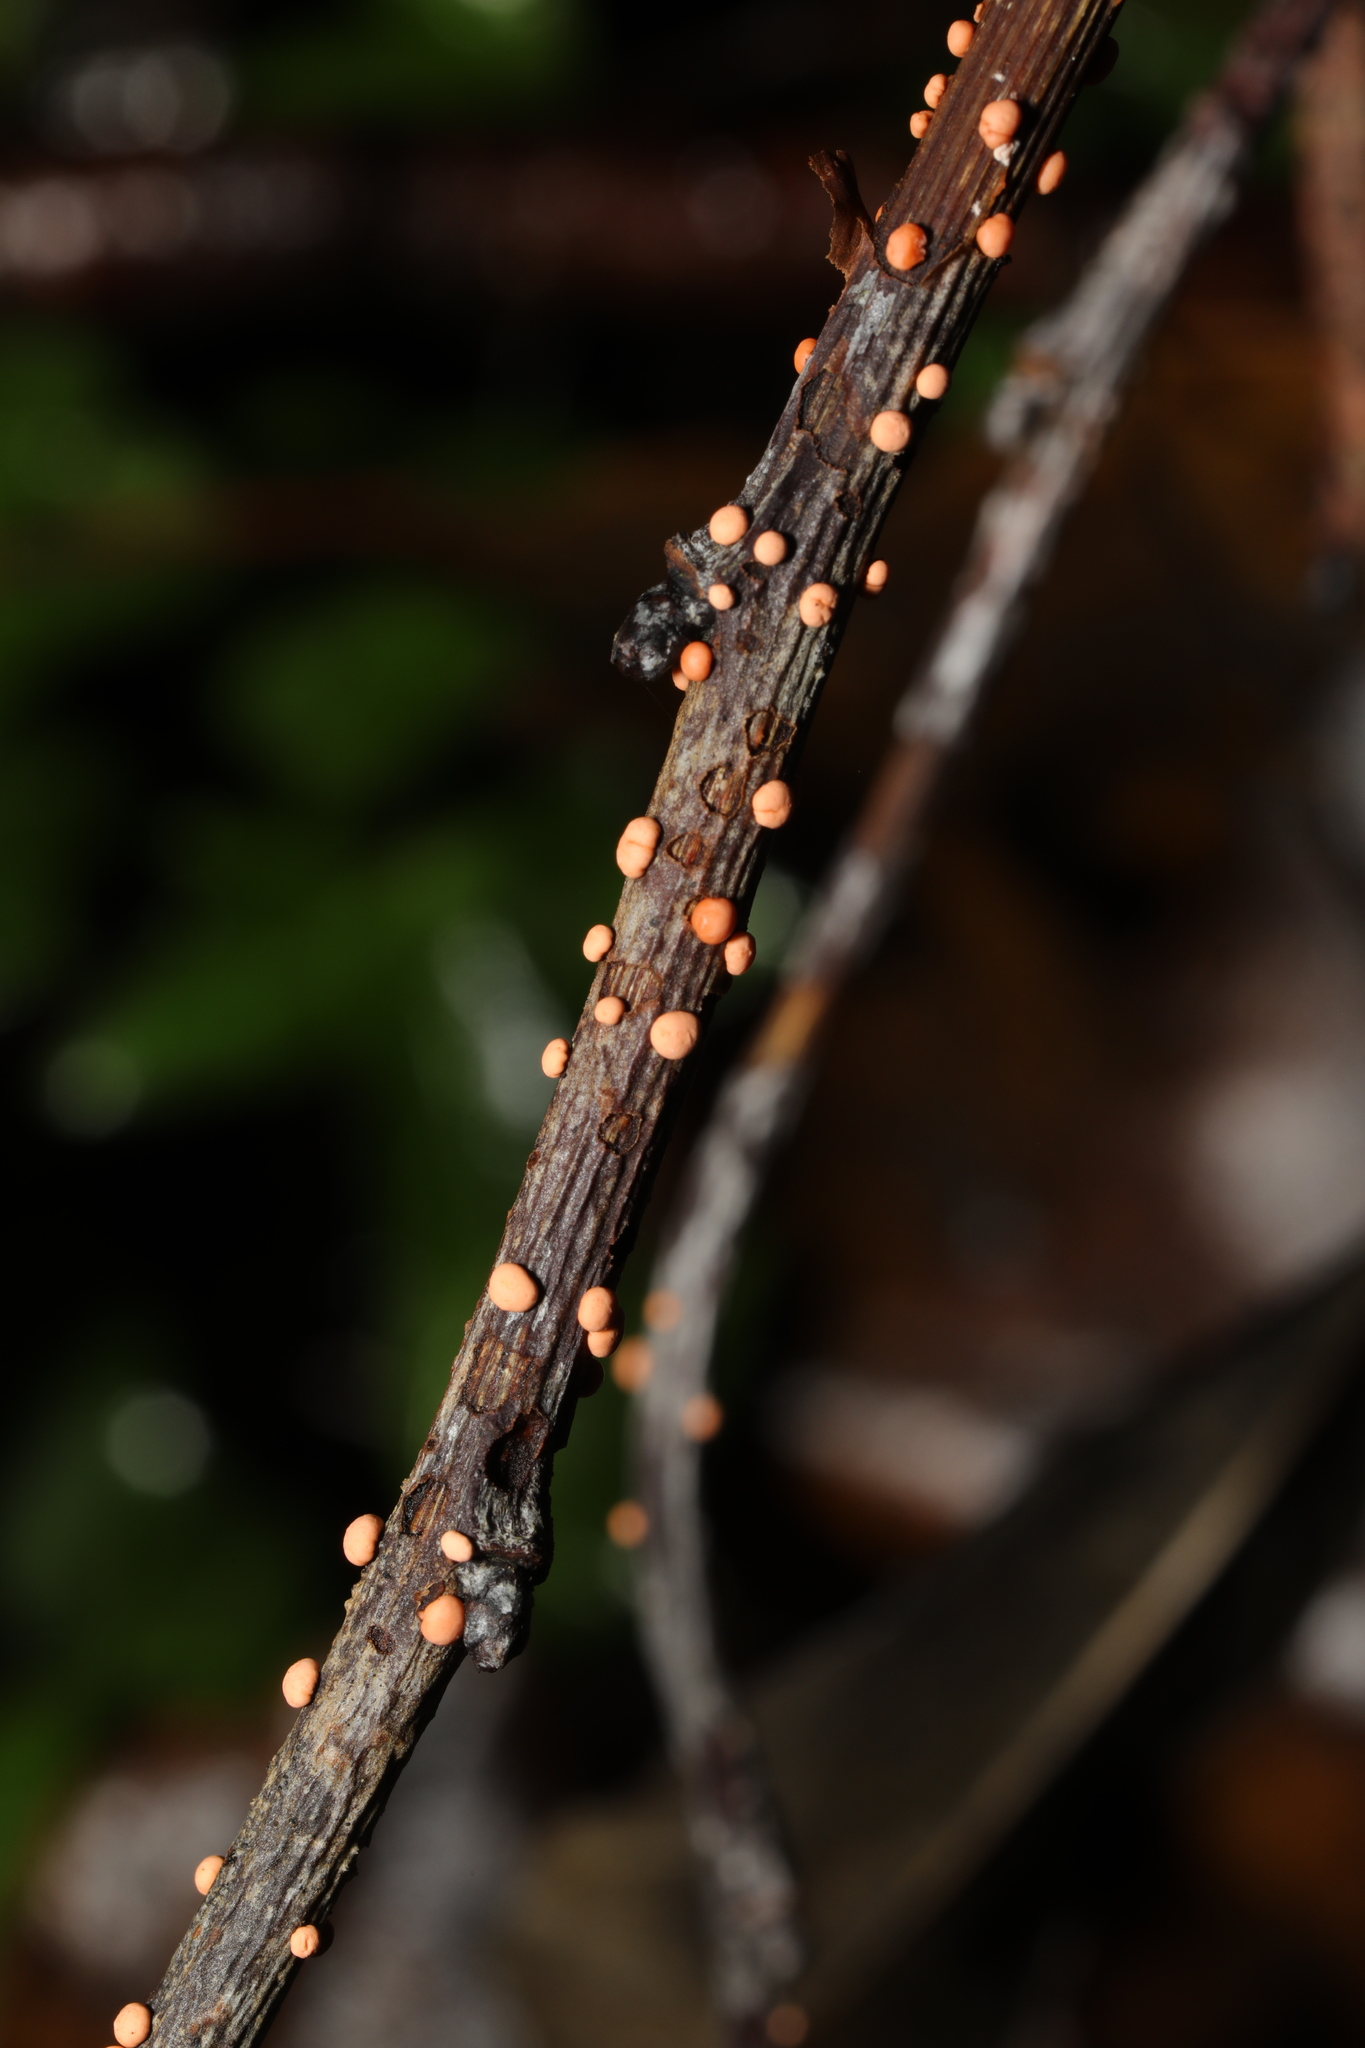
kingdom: Fungi
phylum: Ascomycota
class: Sordariomycetes
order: Hypocreales
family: Nectriaceae
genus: Nectria
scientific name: Nectria cinnabarina
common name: Coral spot
